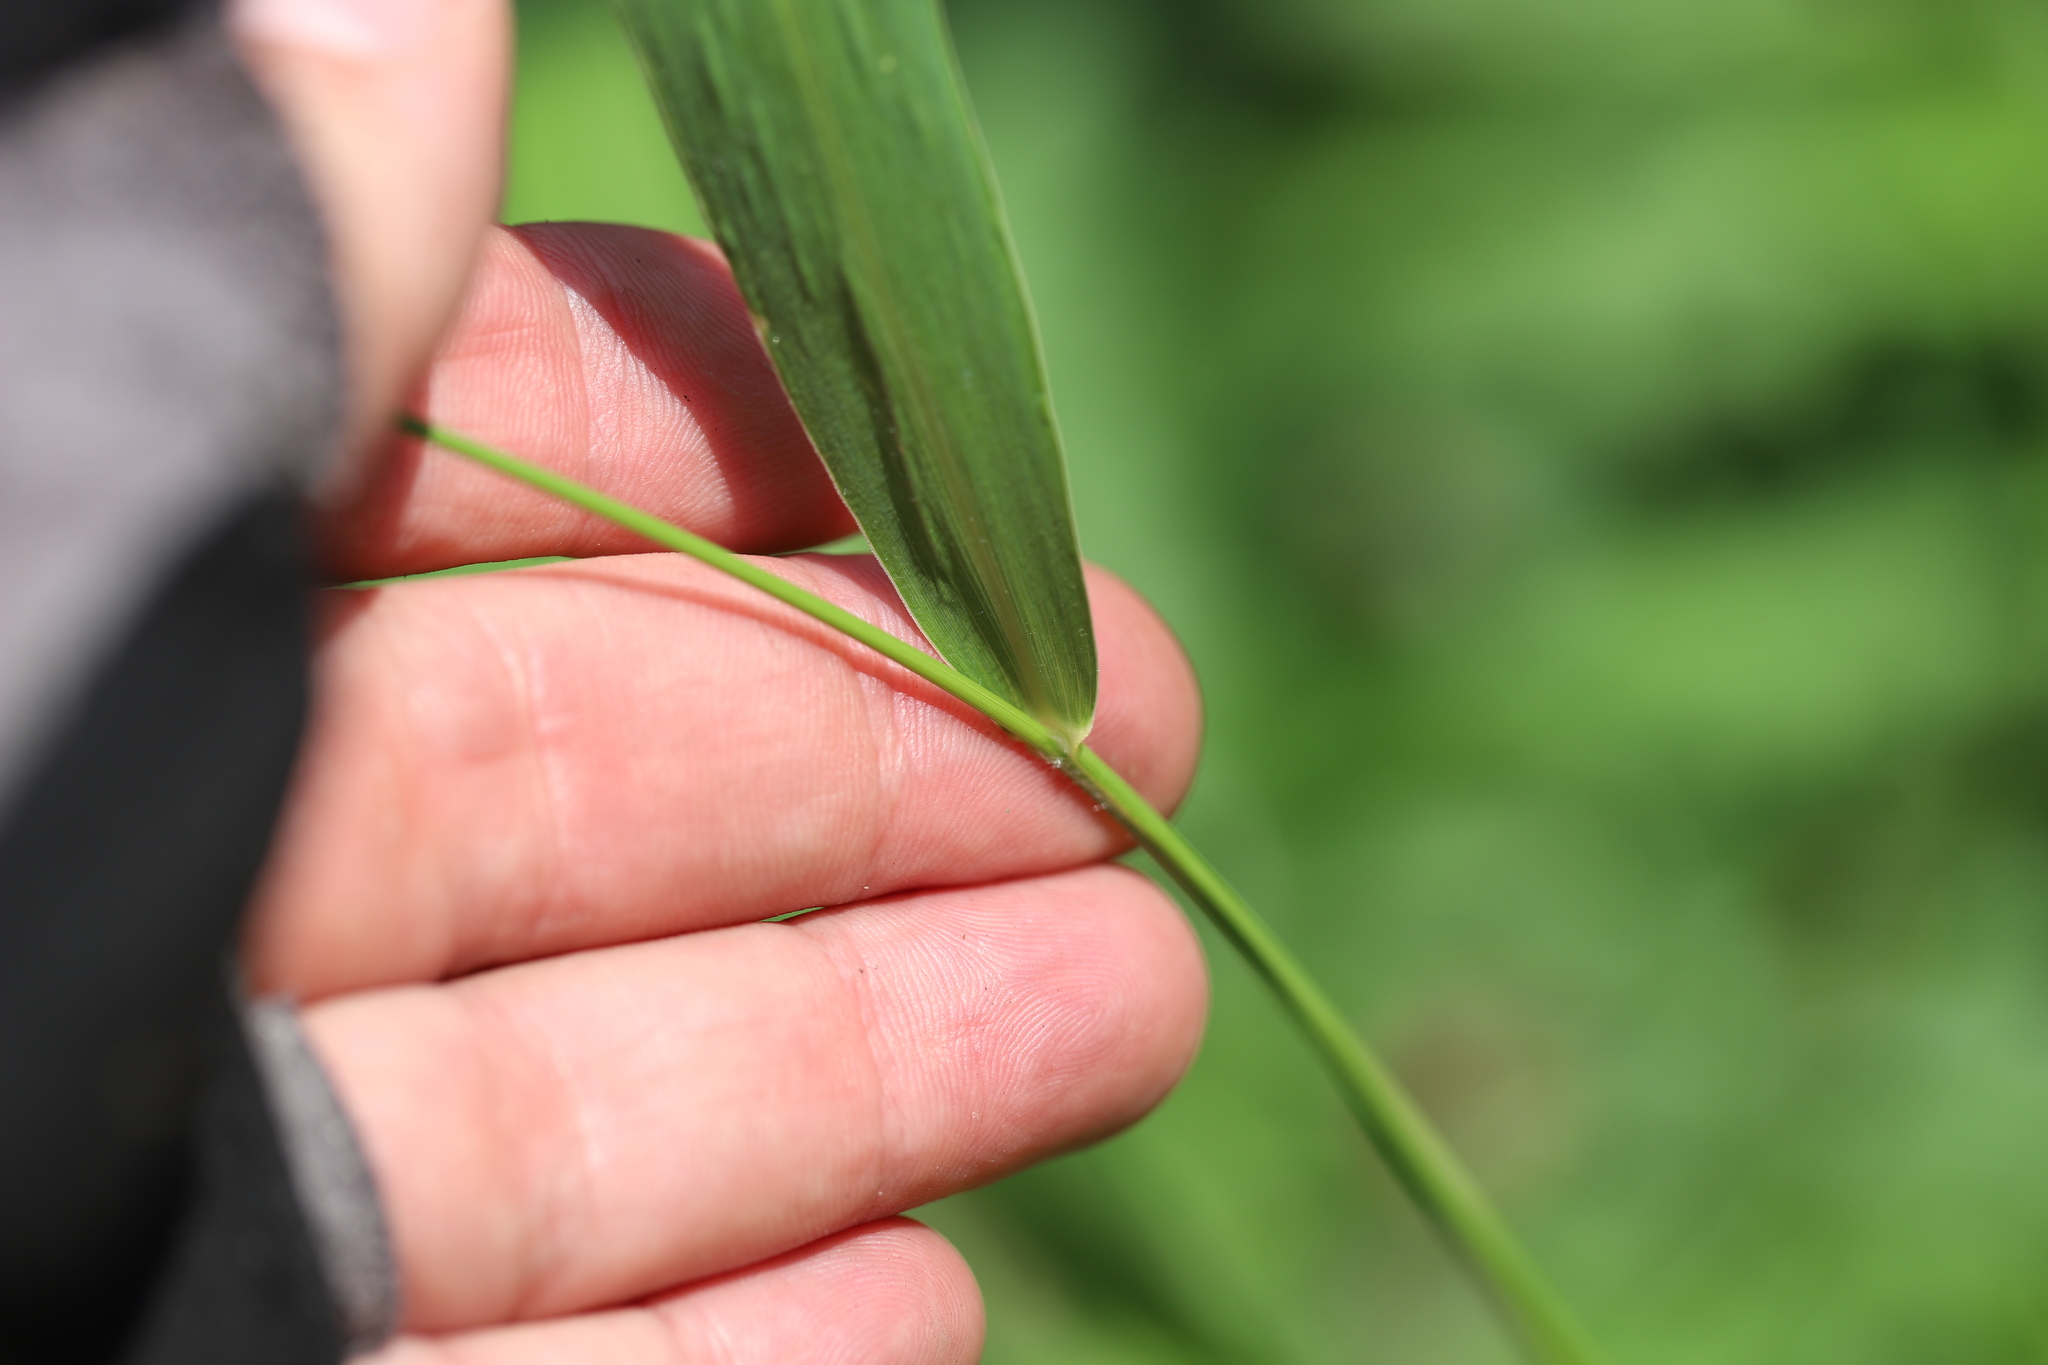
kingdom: Plantae
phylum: Tracheophyta
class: Liliopsida
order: Poales
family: Poaceae
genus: Setaria
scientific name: Setaria faberi
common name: Nodding bristle-grass
